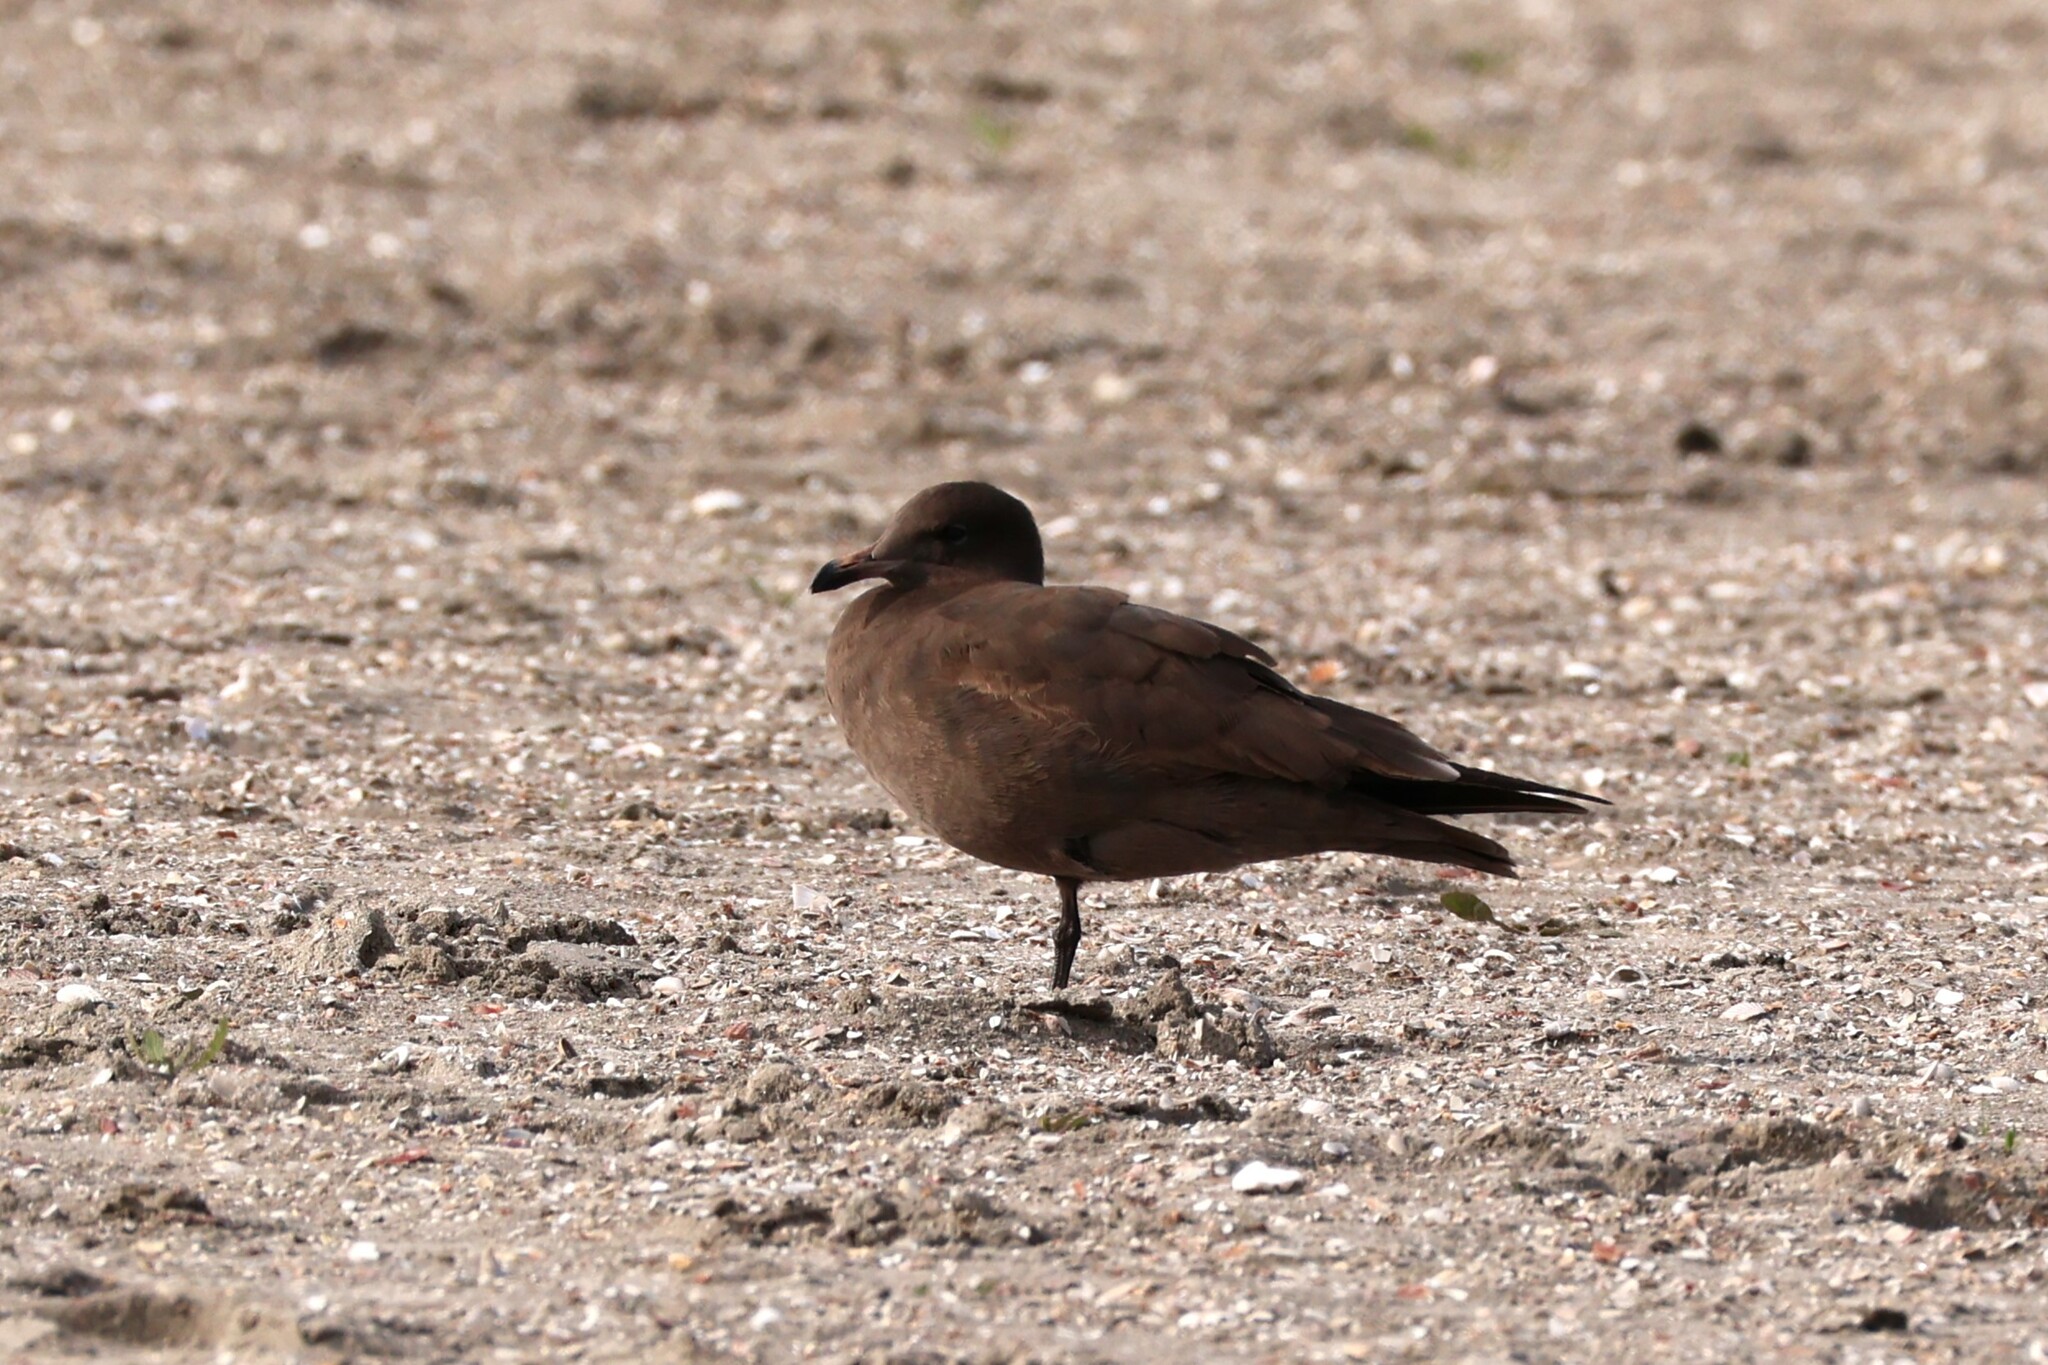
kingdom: Animalia
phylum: Chordata
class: Aves
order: Charadriiformes
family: Laridae
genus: Larus
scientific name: Larus heermanni
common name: Heermann's gull
